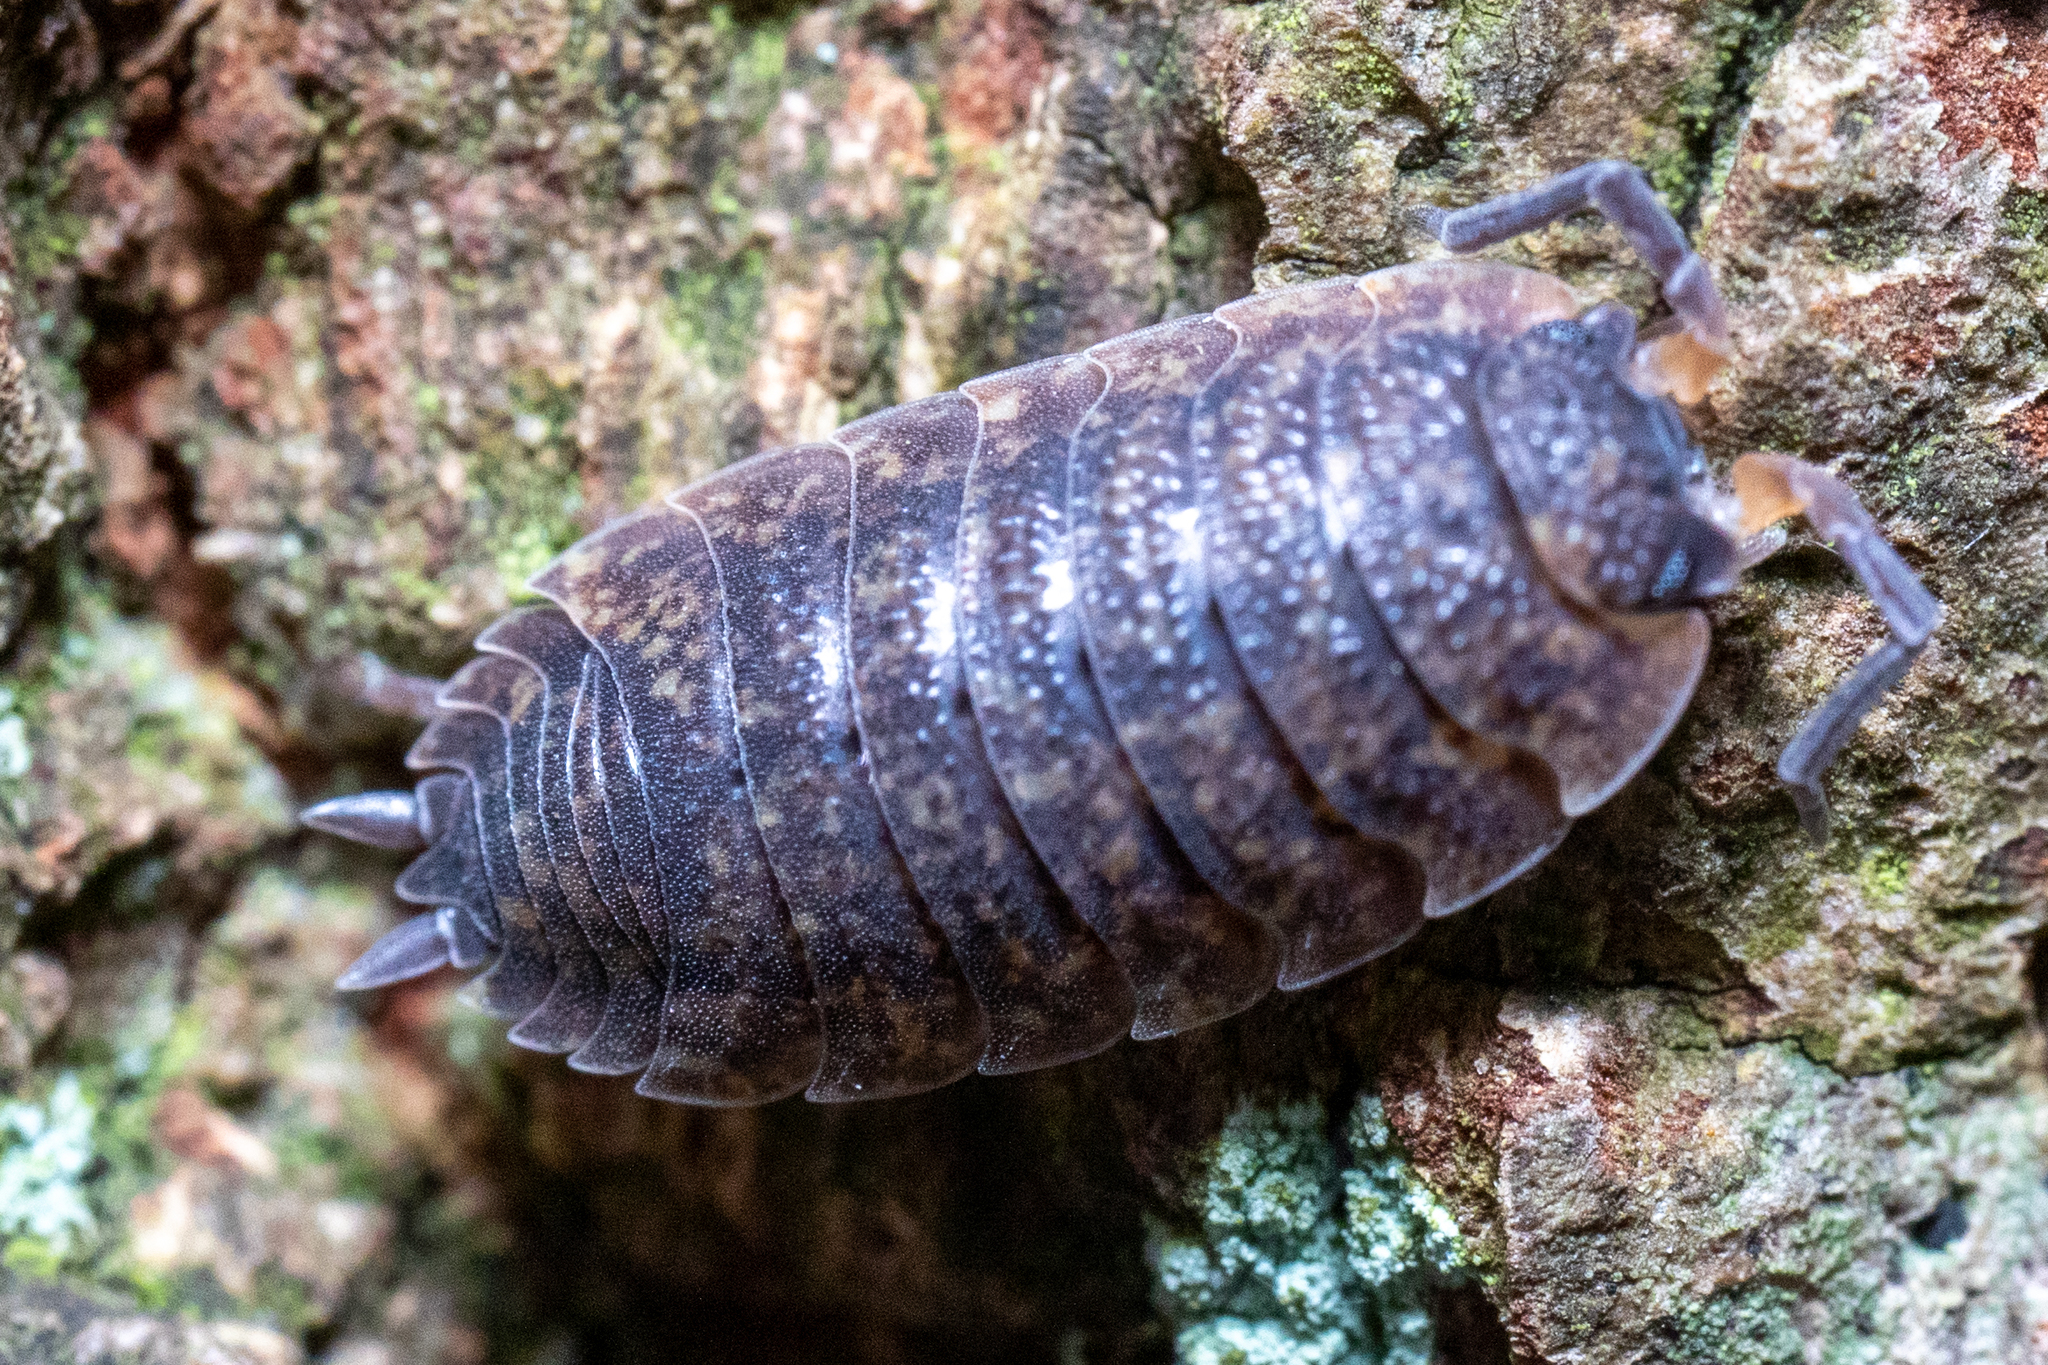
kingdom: Animalia
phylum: Arthropoda
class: Malacostraca
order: Isopoda
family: Porcellionidae
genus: Porcellio
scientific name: Porcellio scaber
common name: Common rough woodlouse
